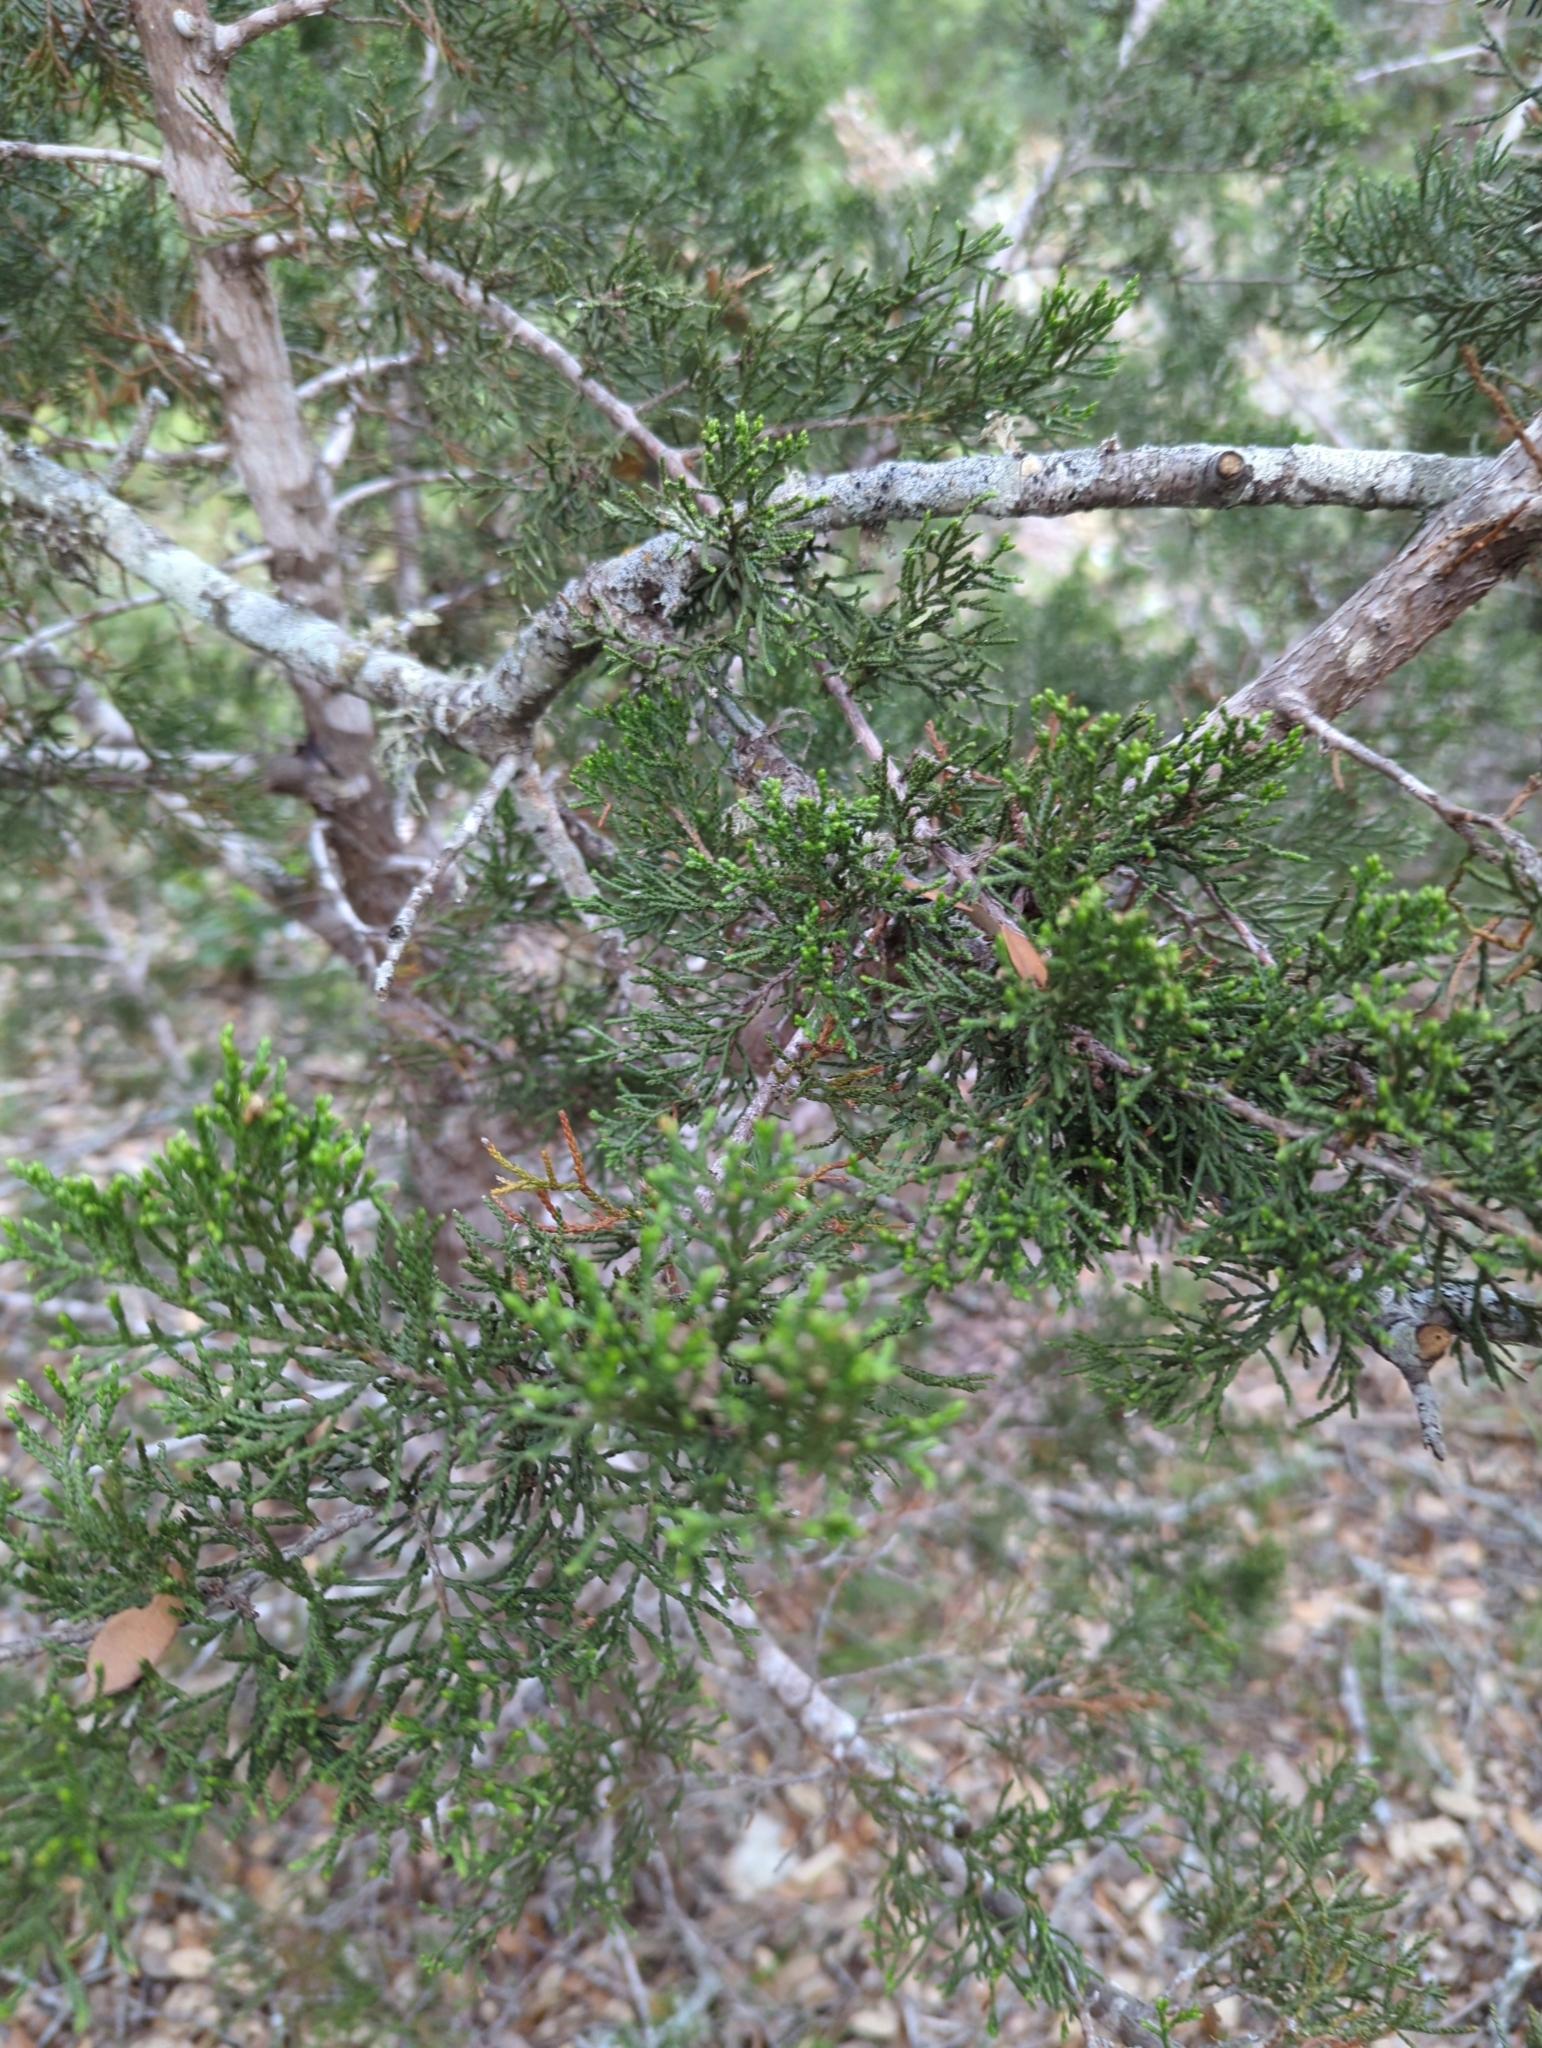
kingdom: Plantae
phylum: Tracheophyta
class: Pinopsida
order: Pinales
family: Cupressaceae
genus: Juniperus
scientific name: Juniperus ashei
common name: Mexican juniper
